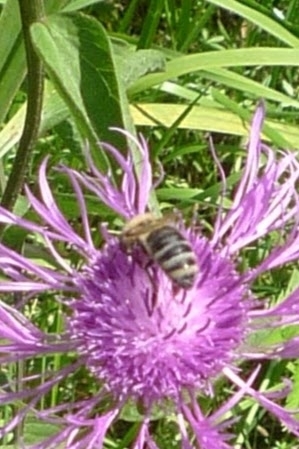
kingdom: Animalia
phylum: Arthropoda
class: Insecta
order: Hymenoptera
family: Apidae
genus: Apis
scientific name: Apis mellifera
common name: Honey bee
